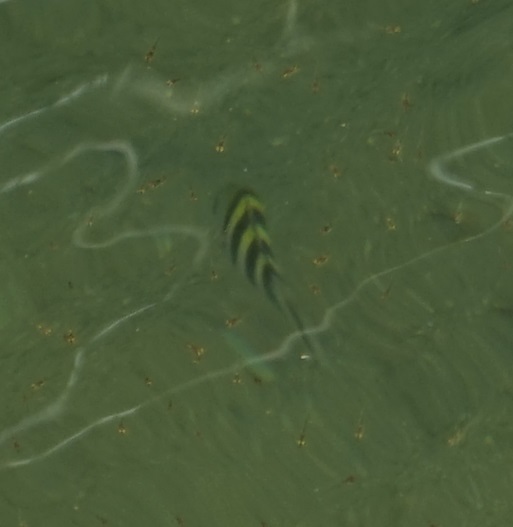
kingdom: Animalia
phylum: Chordata
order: Perciformes
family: Pomacentridae
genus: Abudefduf
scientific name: Abudefduf vaigiensis
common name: Indo-pacific sergeant
